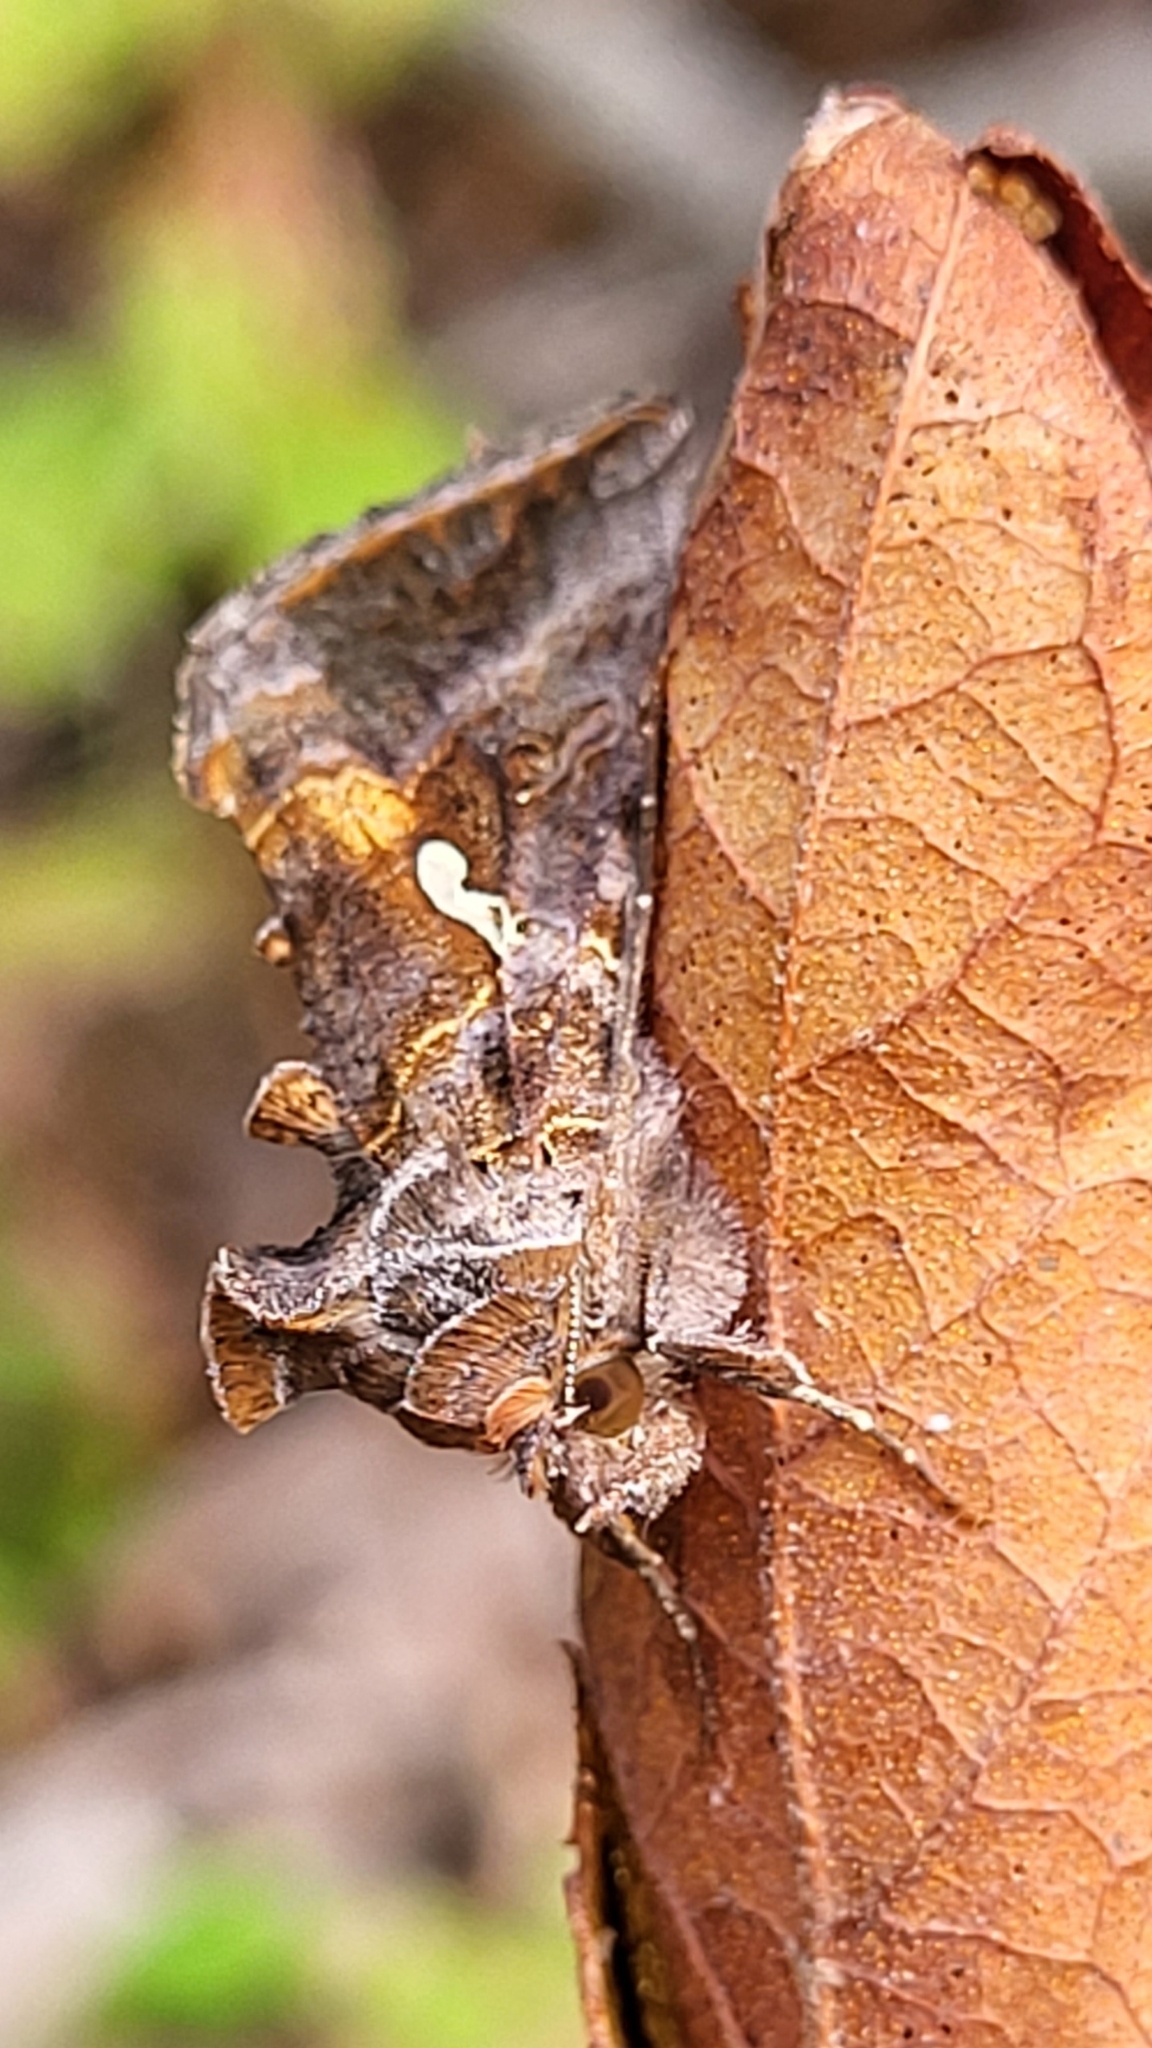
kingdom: Animalia
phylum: Arthropoda
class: Insecta
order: Lepidoptera
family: Noctuidae
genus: Autographa
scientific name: Autographa precationis
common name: Common looper moth
